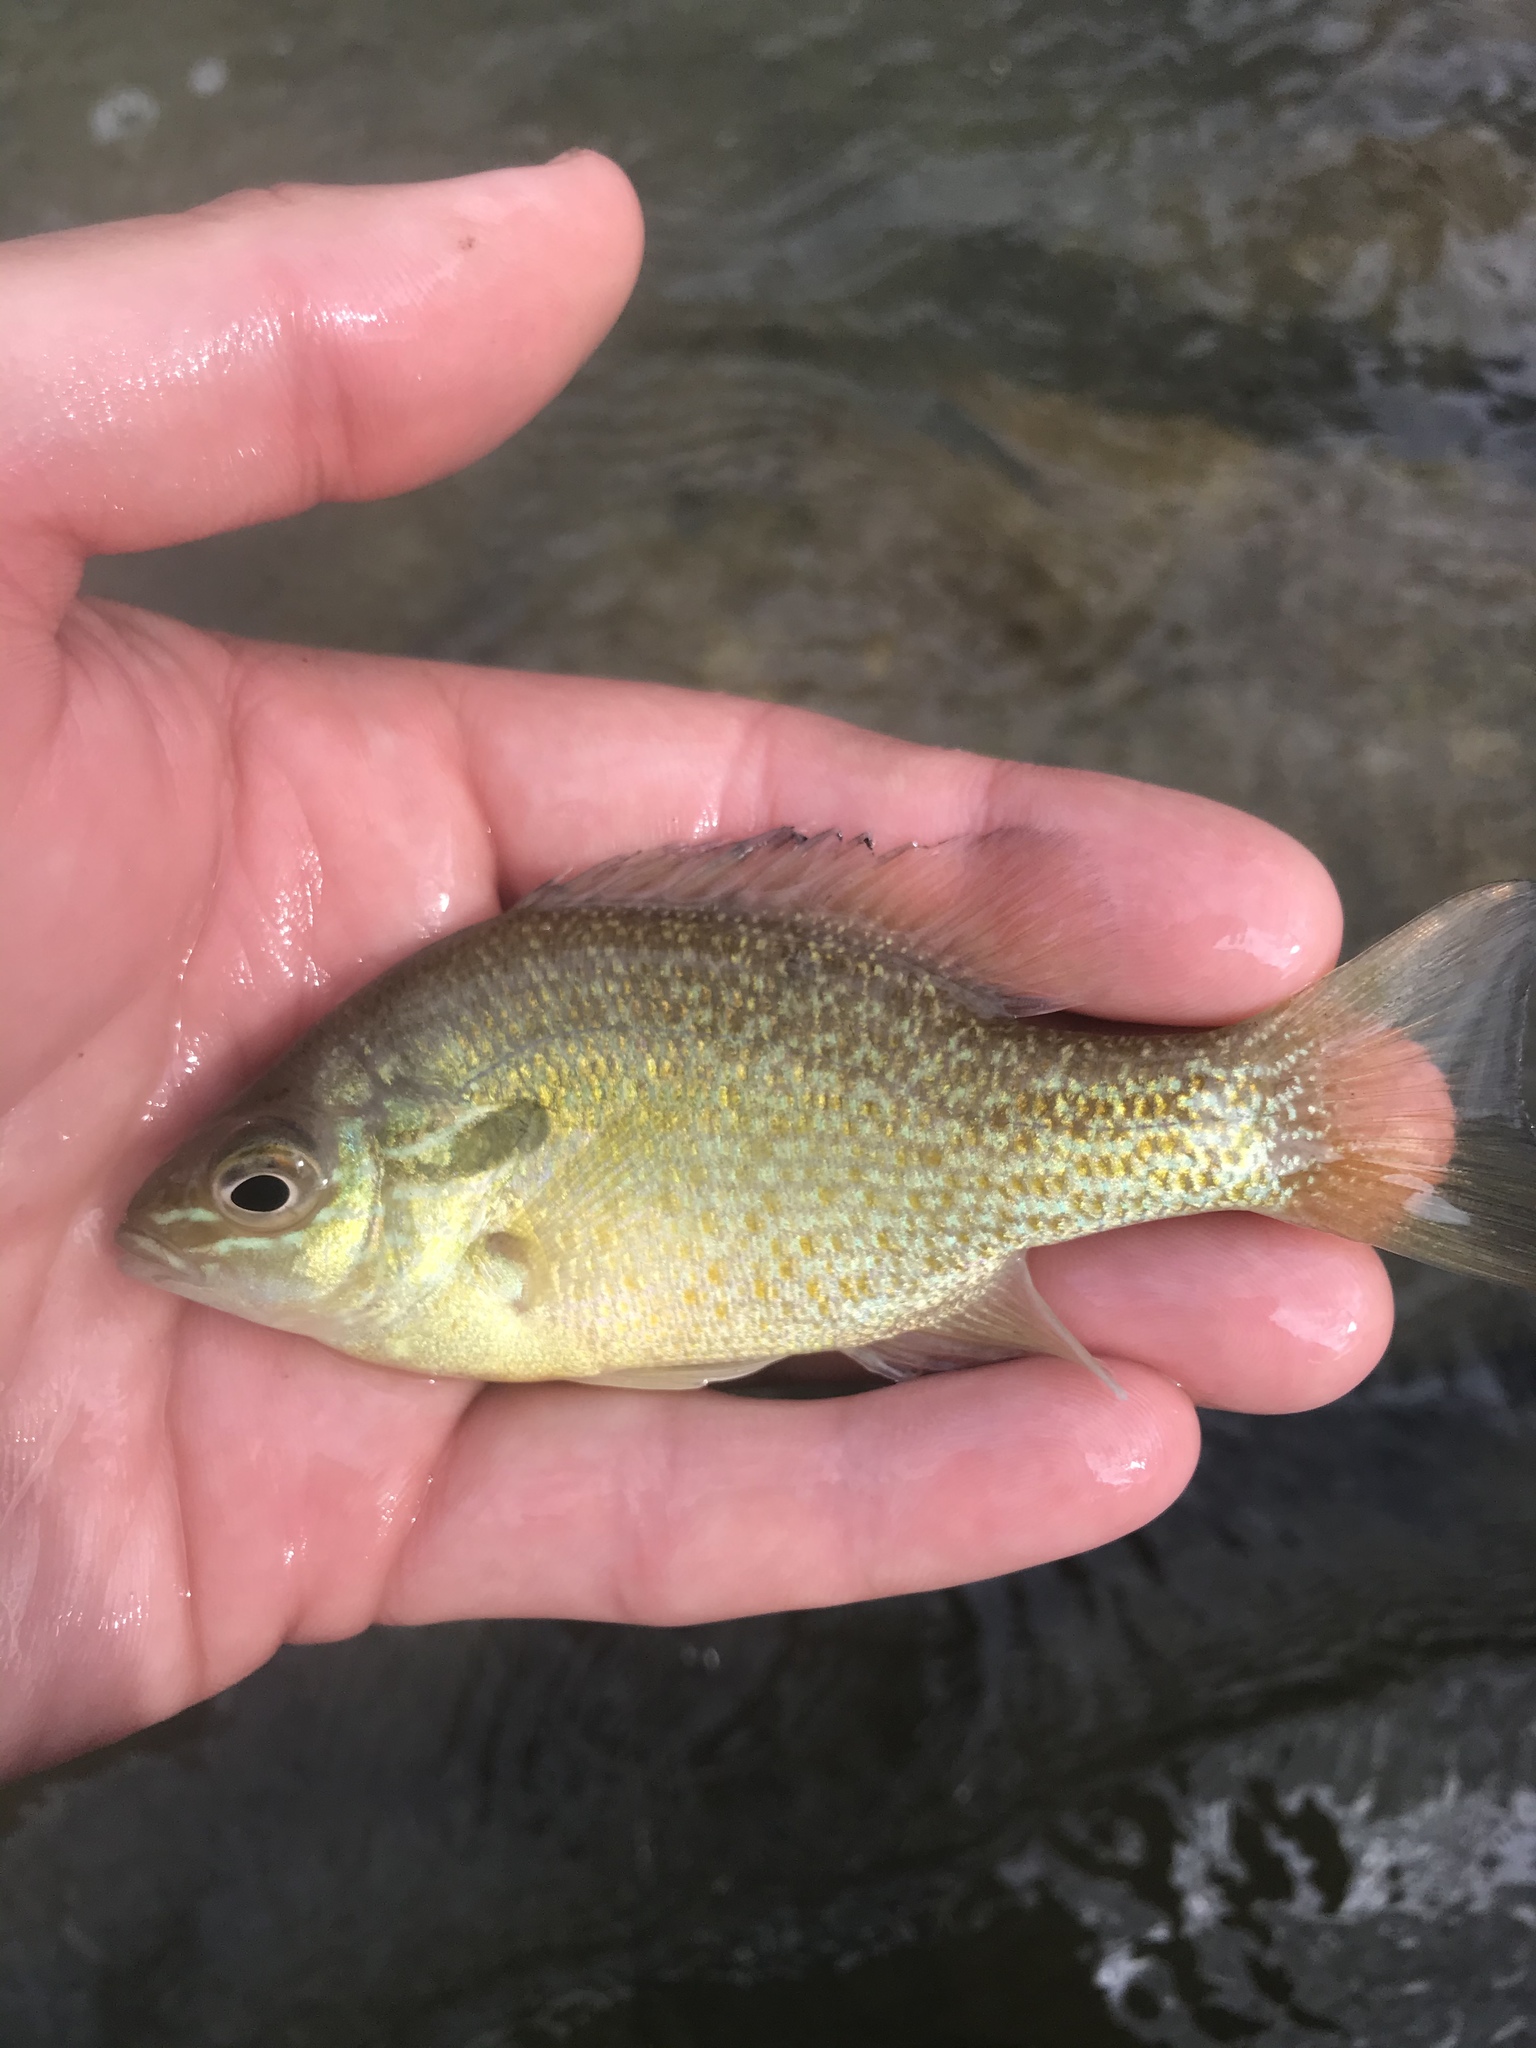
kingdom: Animalia
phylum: Chordata
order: Perciformes
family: Centrarchidae
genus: Lepomis
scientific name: Lepomis auritus
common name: Redbreast sunfish
